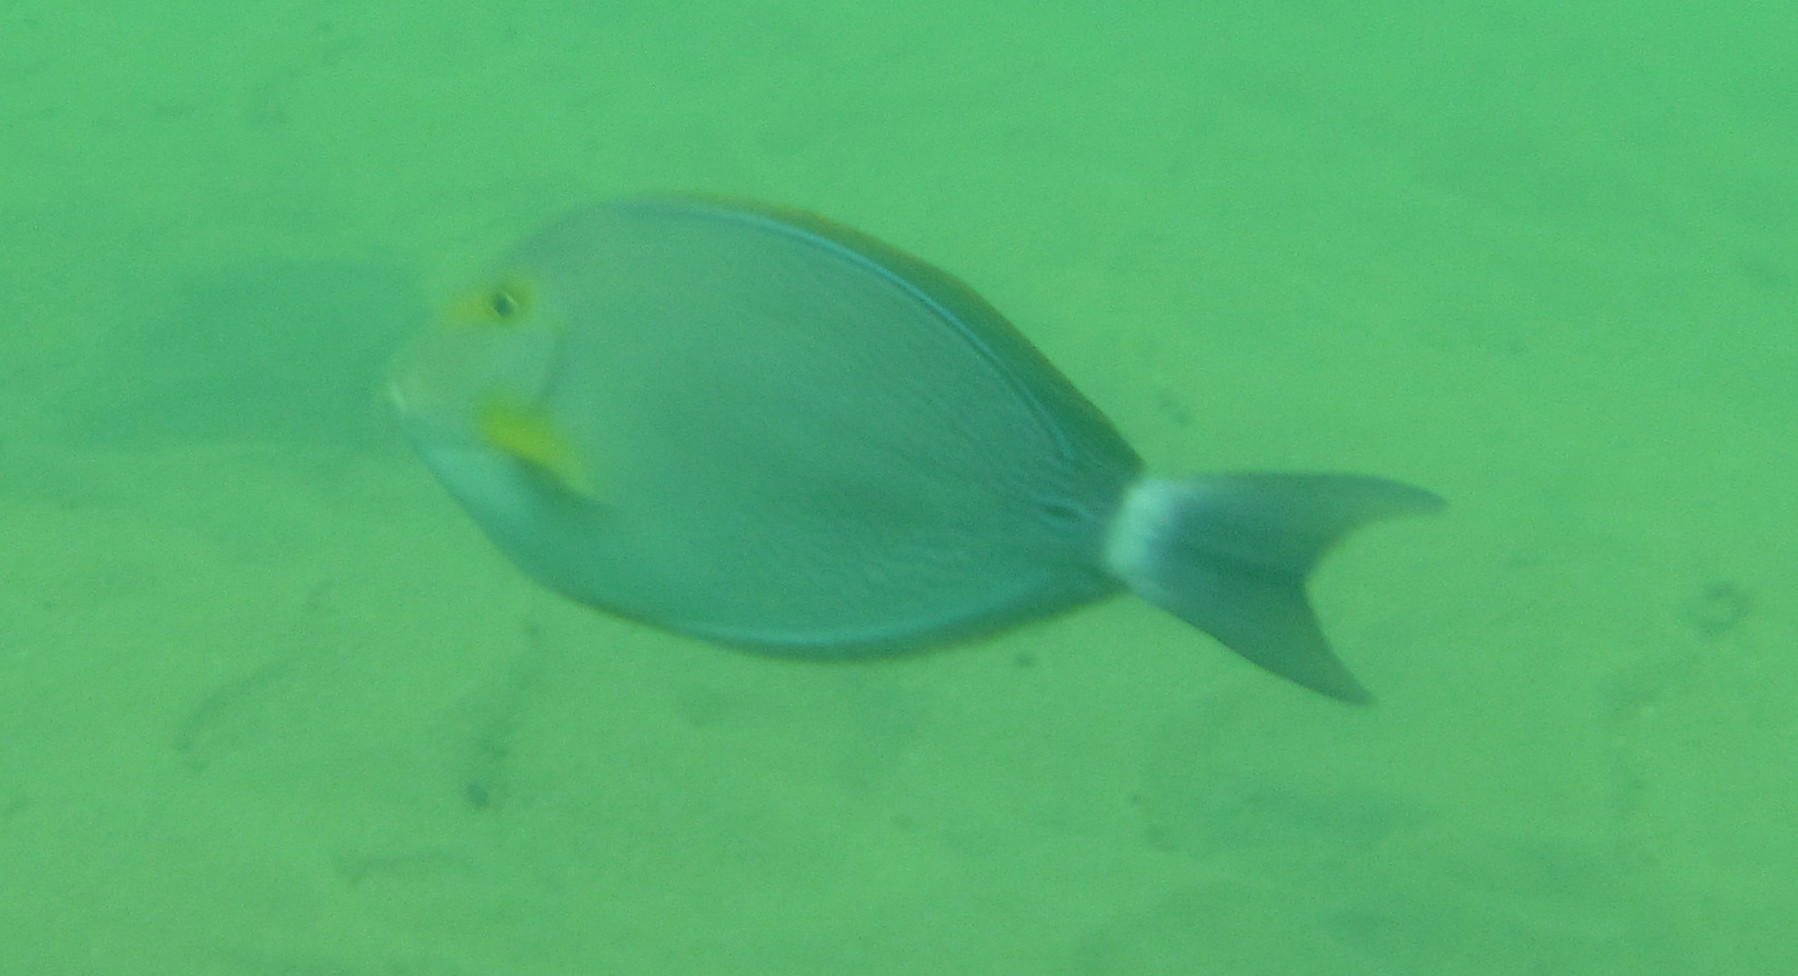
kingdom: Animalia
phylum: Chordata
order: Perciformes
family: Acanthuridae
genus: Acanthurus
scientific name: Acanthurus xanthopterus
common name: Cuvier's surgeonfish
